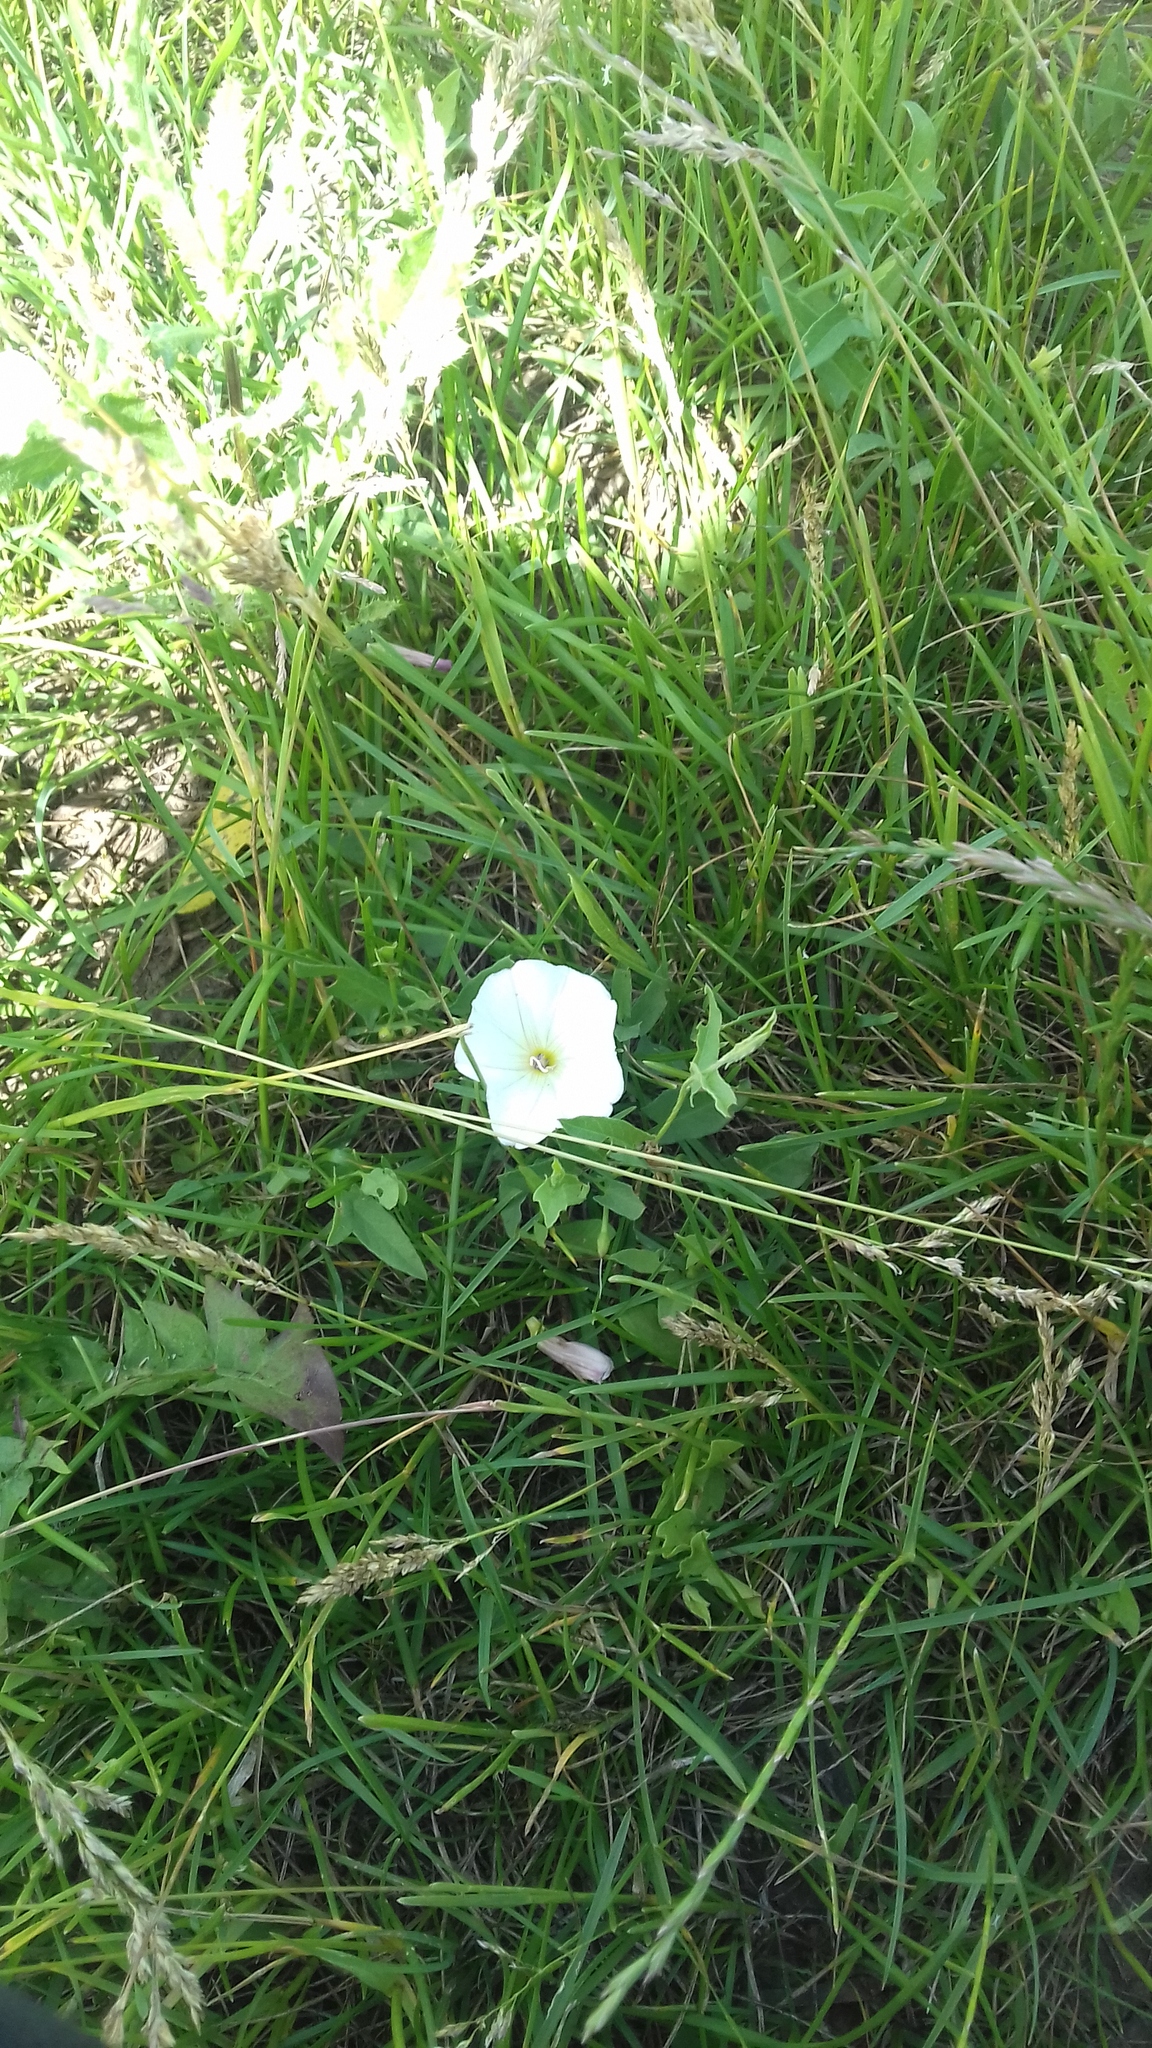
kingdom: Plantae
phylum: Tracheophyta
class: Magnoliopsida
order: Solanales
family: Convolvulaceae
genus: Convolvulus
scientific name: Convolvulus arvensis
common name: Field bindweed
